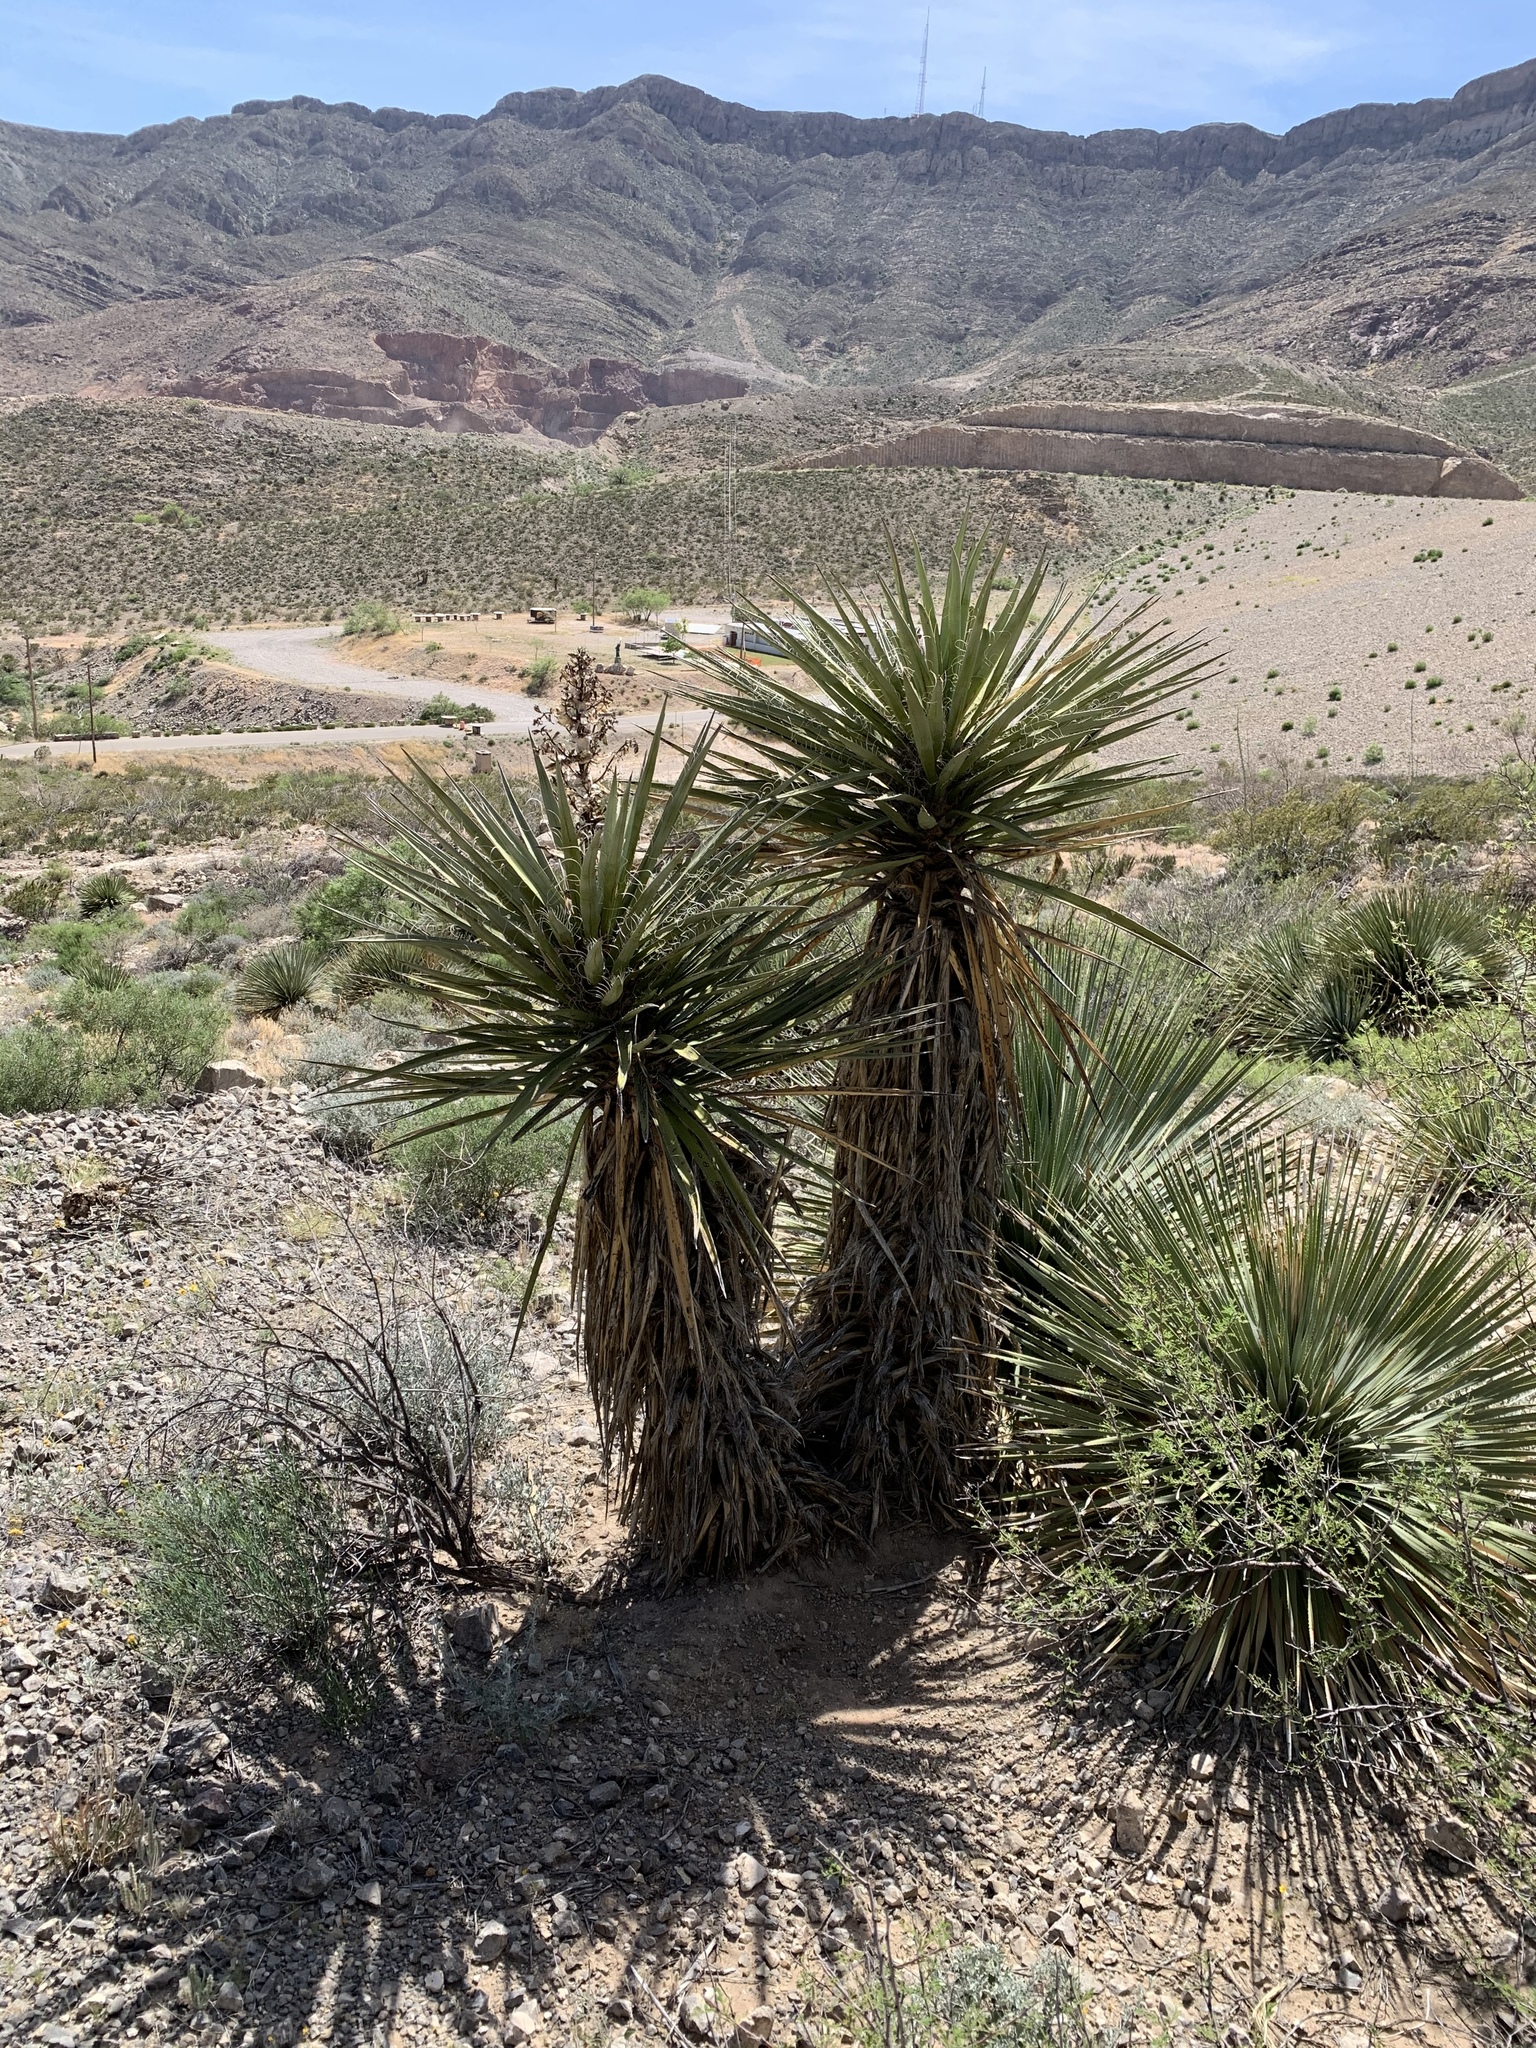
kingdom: Plantae
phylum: Tracheophyta
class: Liliopsida
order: Asparagales
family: Asparagaceae
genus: Yucca
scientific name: Yucca treculiana
